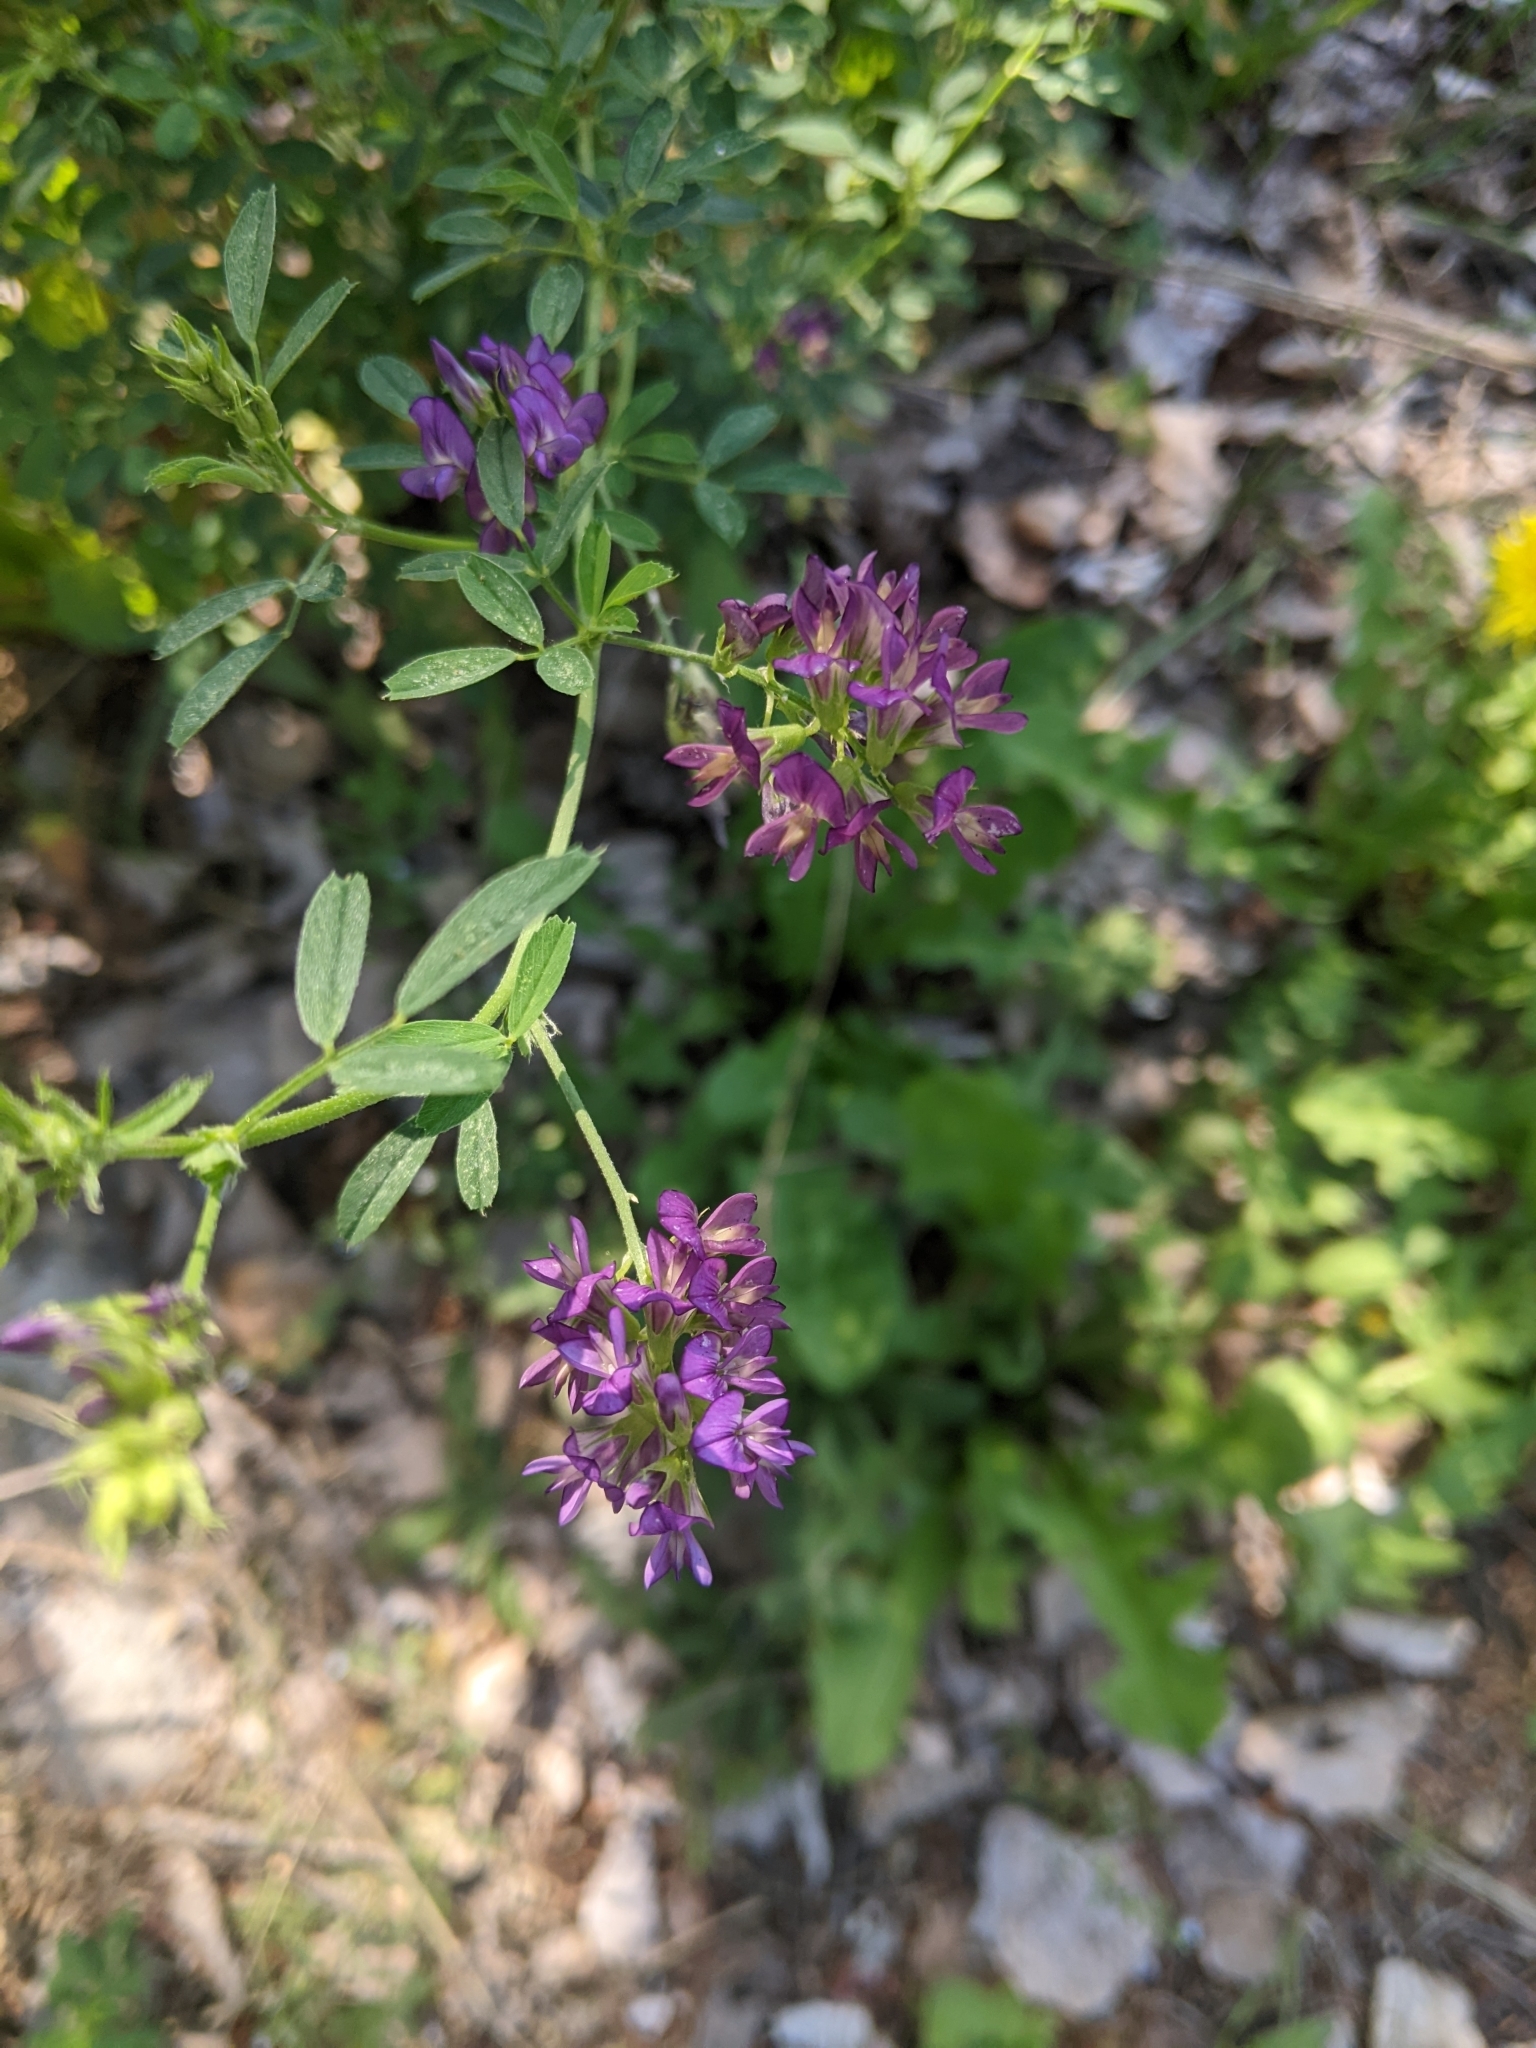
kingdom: Plantae
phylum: Tracheophyta
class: Magnoliopsida
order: Fabales
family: Fabaceae
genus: Medicago
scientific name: Medicago sativa
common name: Alfalfa
